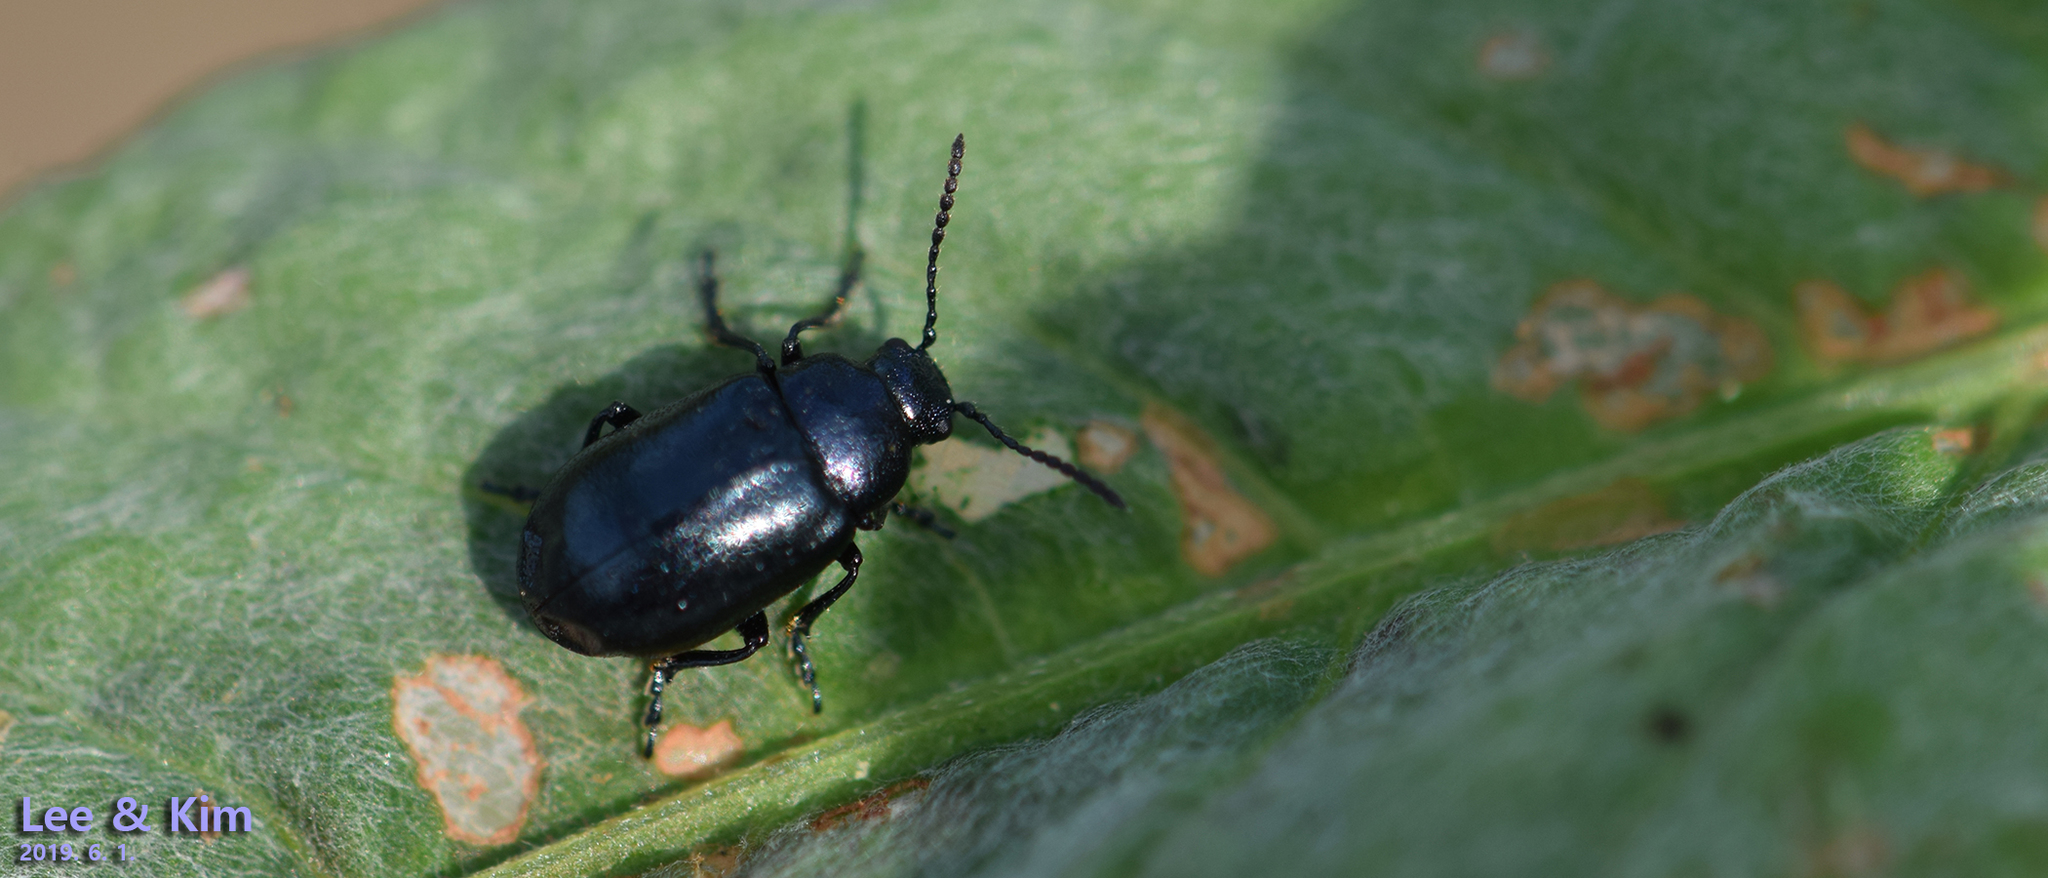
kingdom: Animalia
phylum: Arthropoda
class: Insecta
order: Coleoptera
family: Chrysomelidae
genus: Gastrophysa
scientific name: Gastrophysa atrocyanea
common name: Leaf beetle
